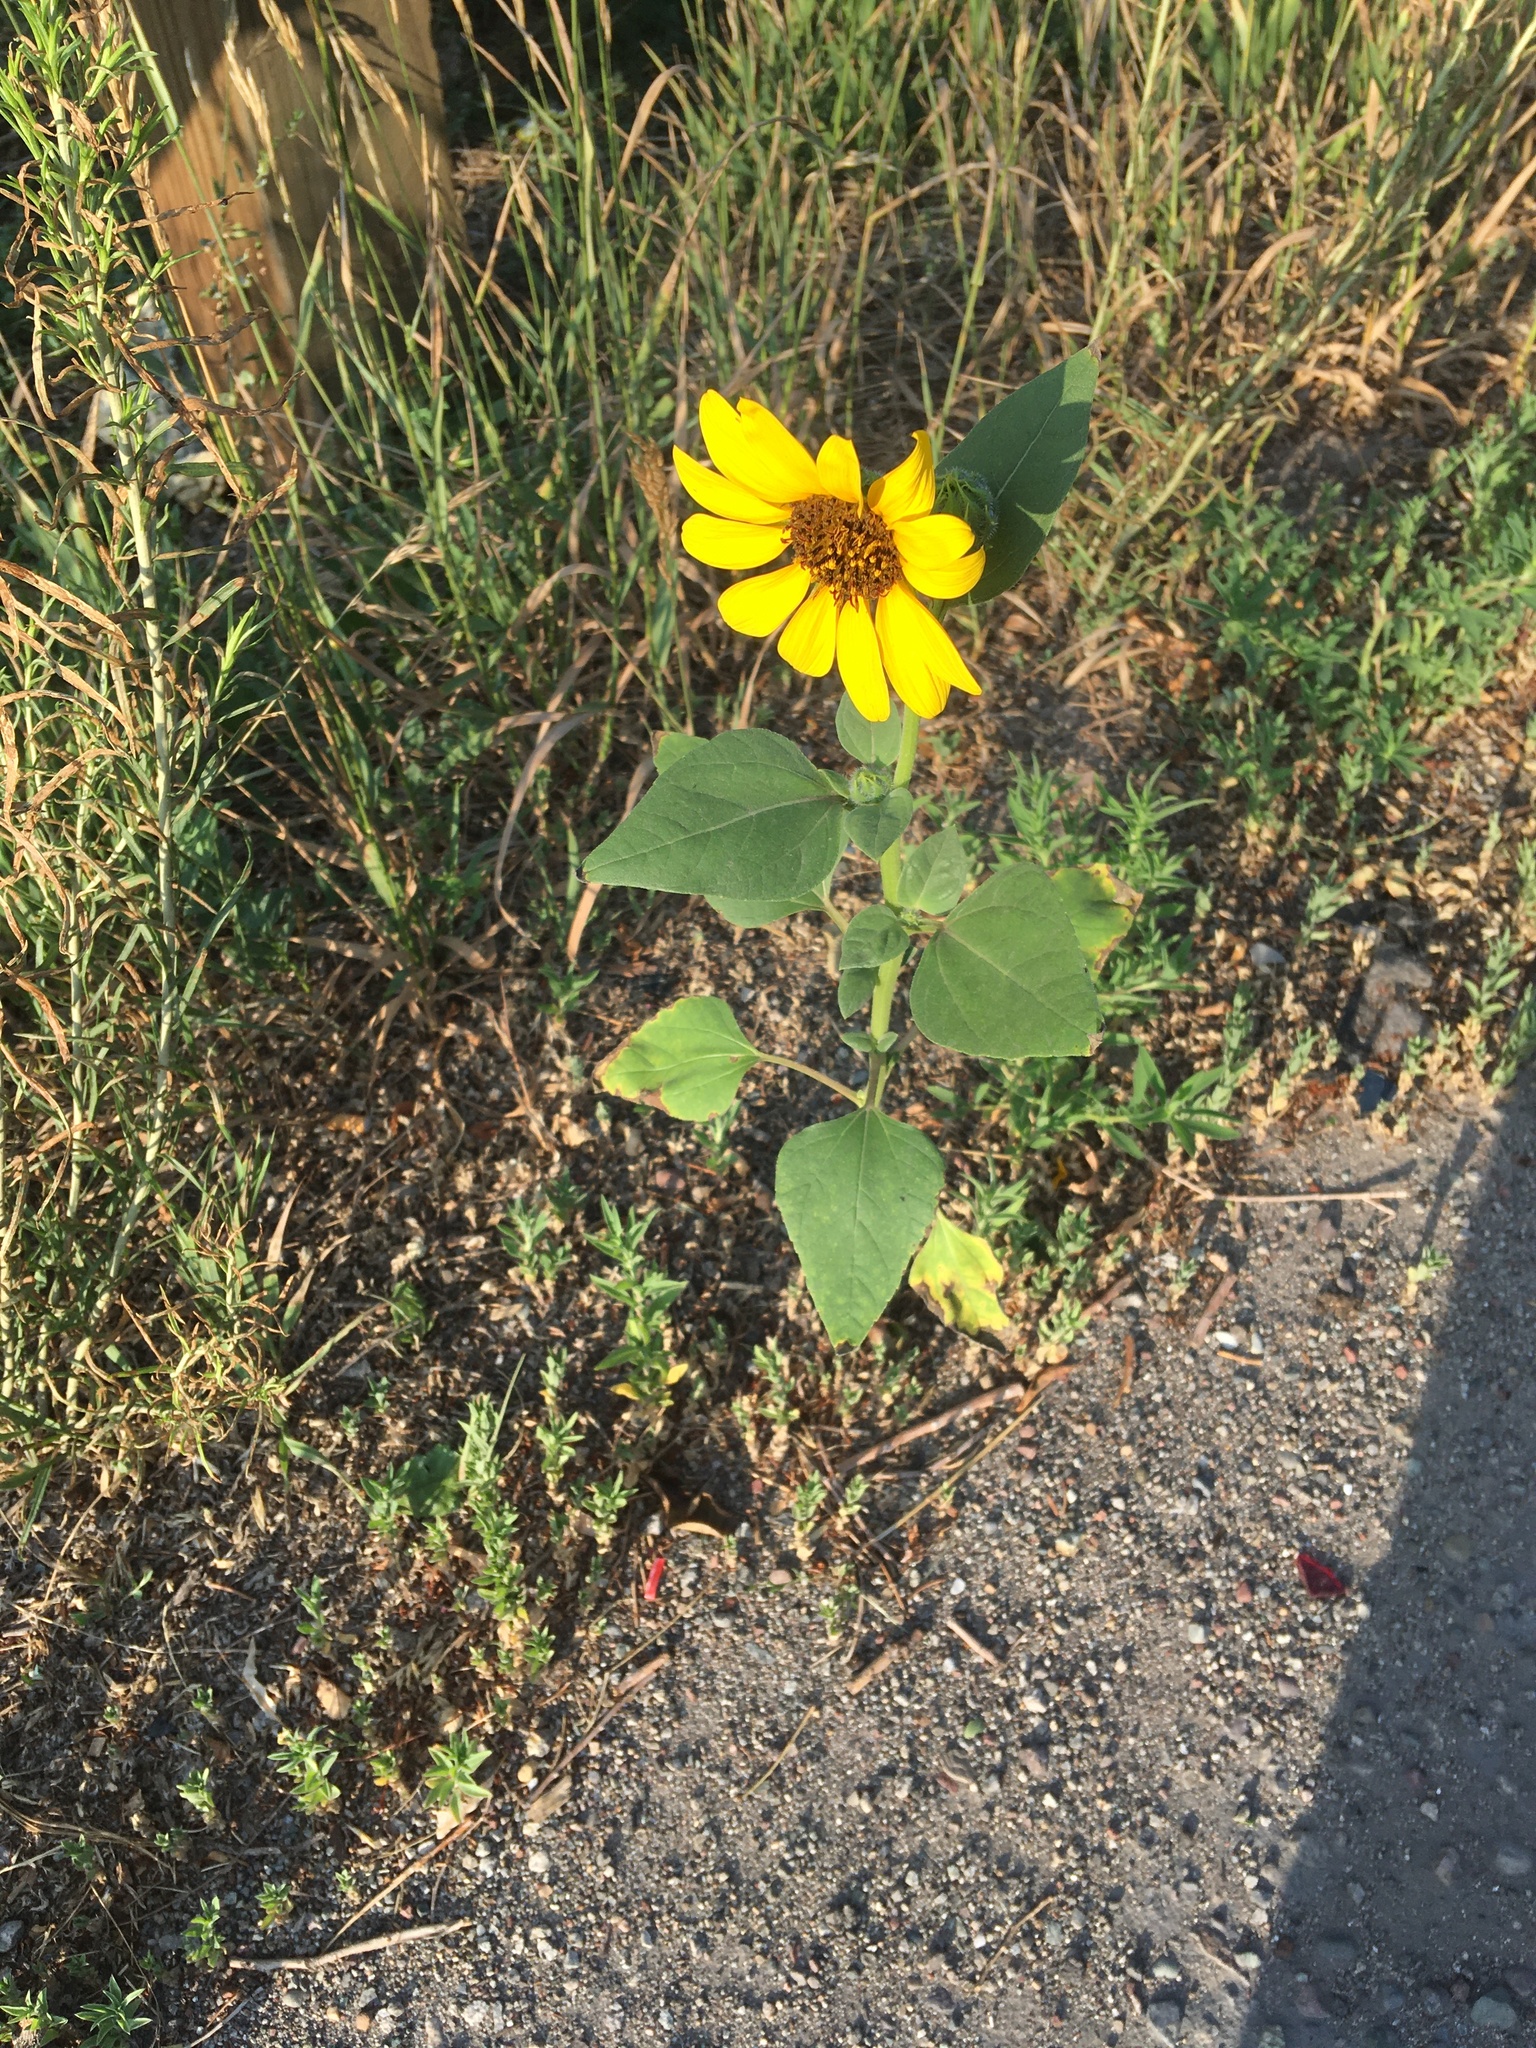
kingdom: Plantae
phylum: Tracheophyta
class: Magnoliopsida
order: Asterales
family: Asteraceae
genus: Helianthus
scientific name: Helianthus annuus
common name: Sunflower
